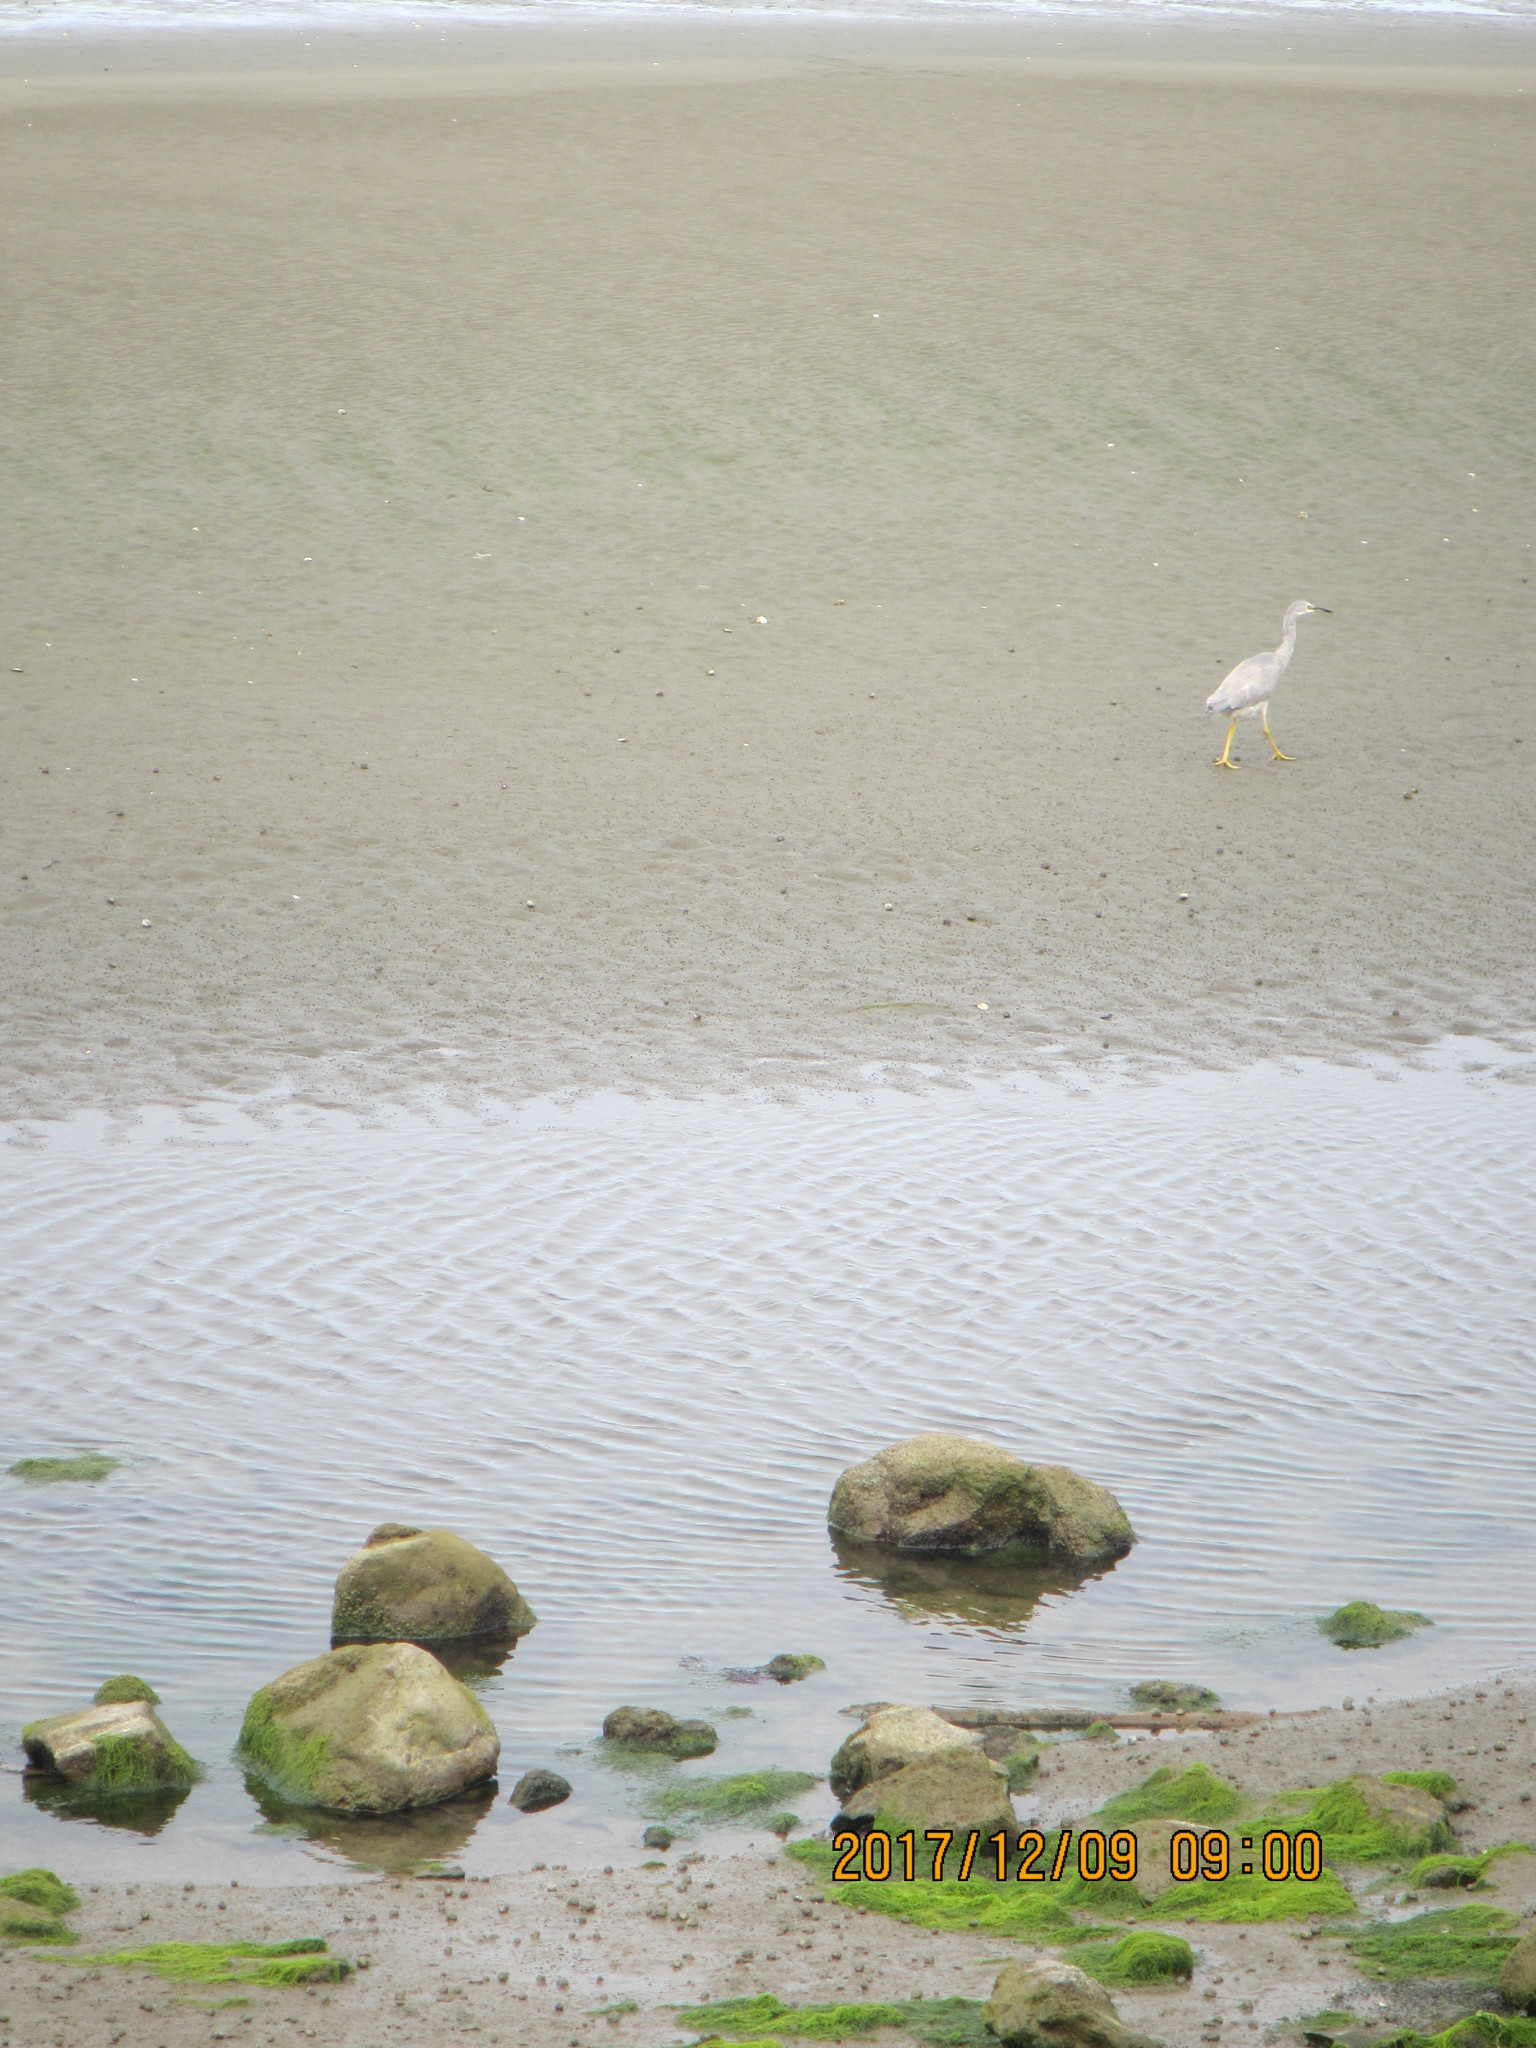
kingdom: Animalia
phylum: Chordata
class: Aves
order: Pelecaniformes
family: Ardeidae
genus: Egretta
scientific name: Egretta novaehollandiae
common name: White-faced heron
